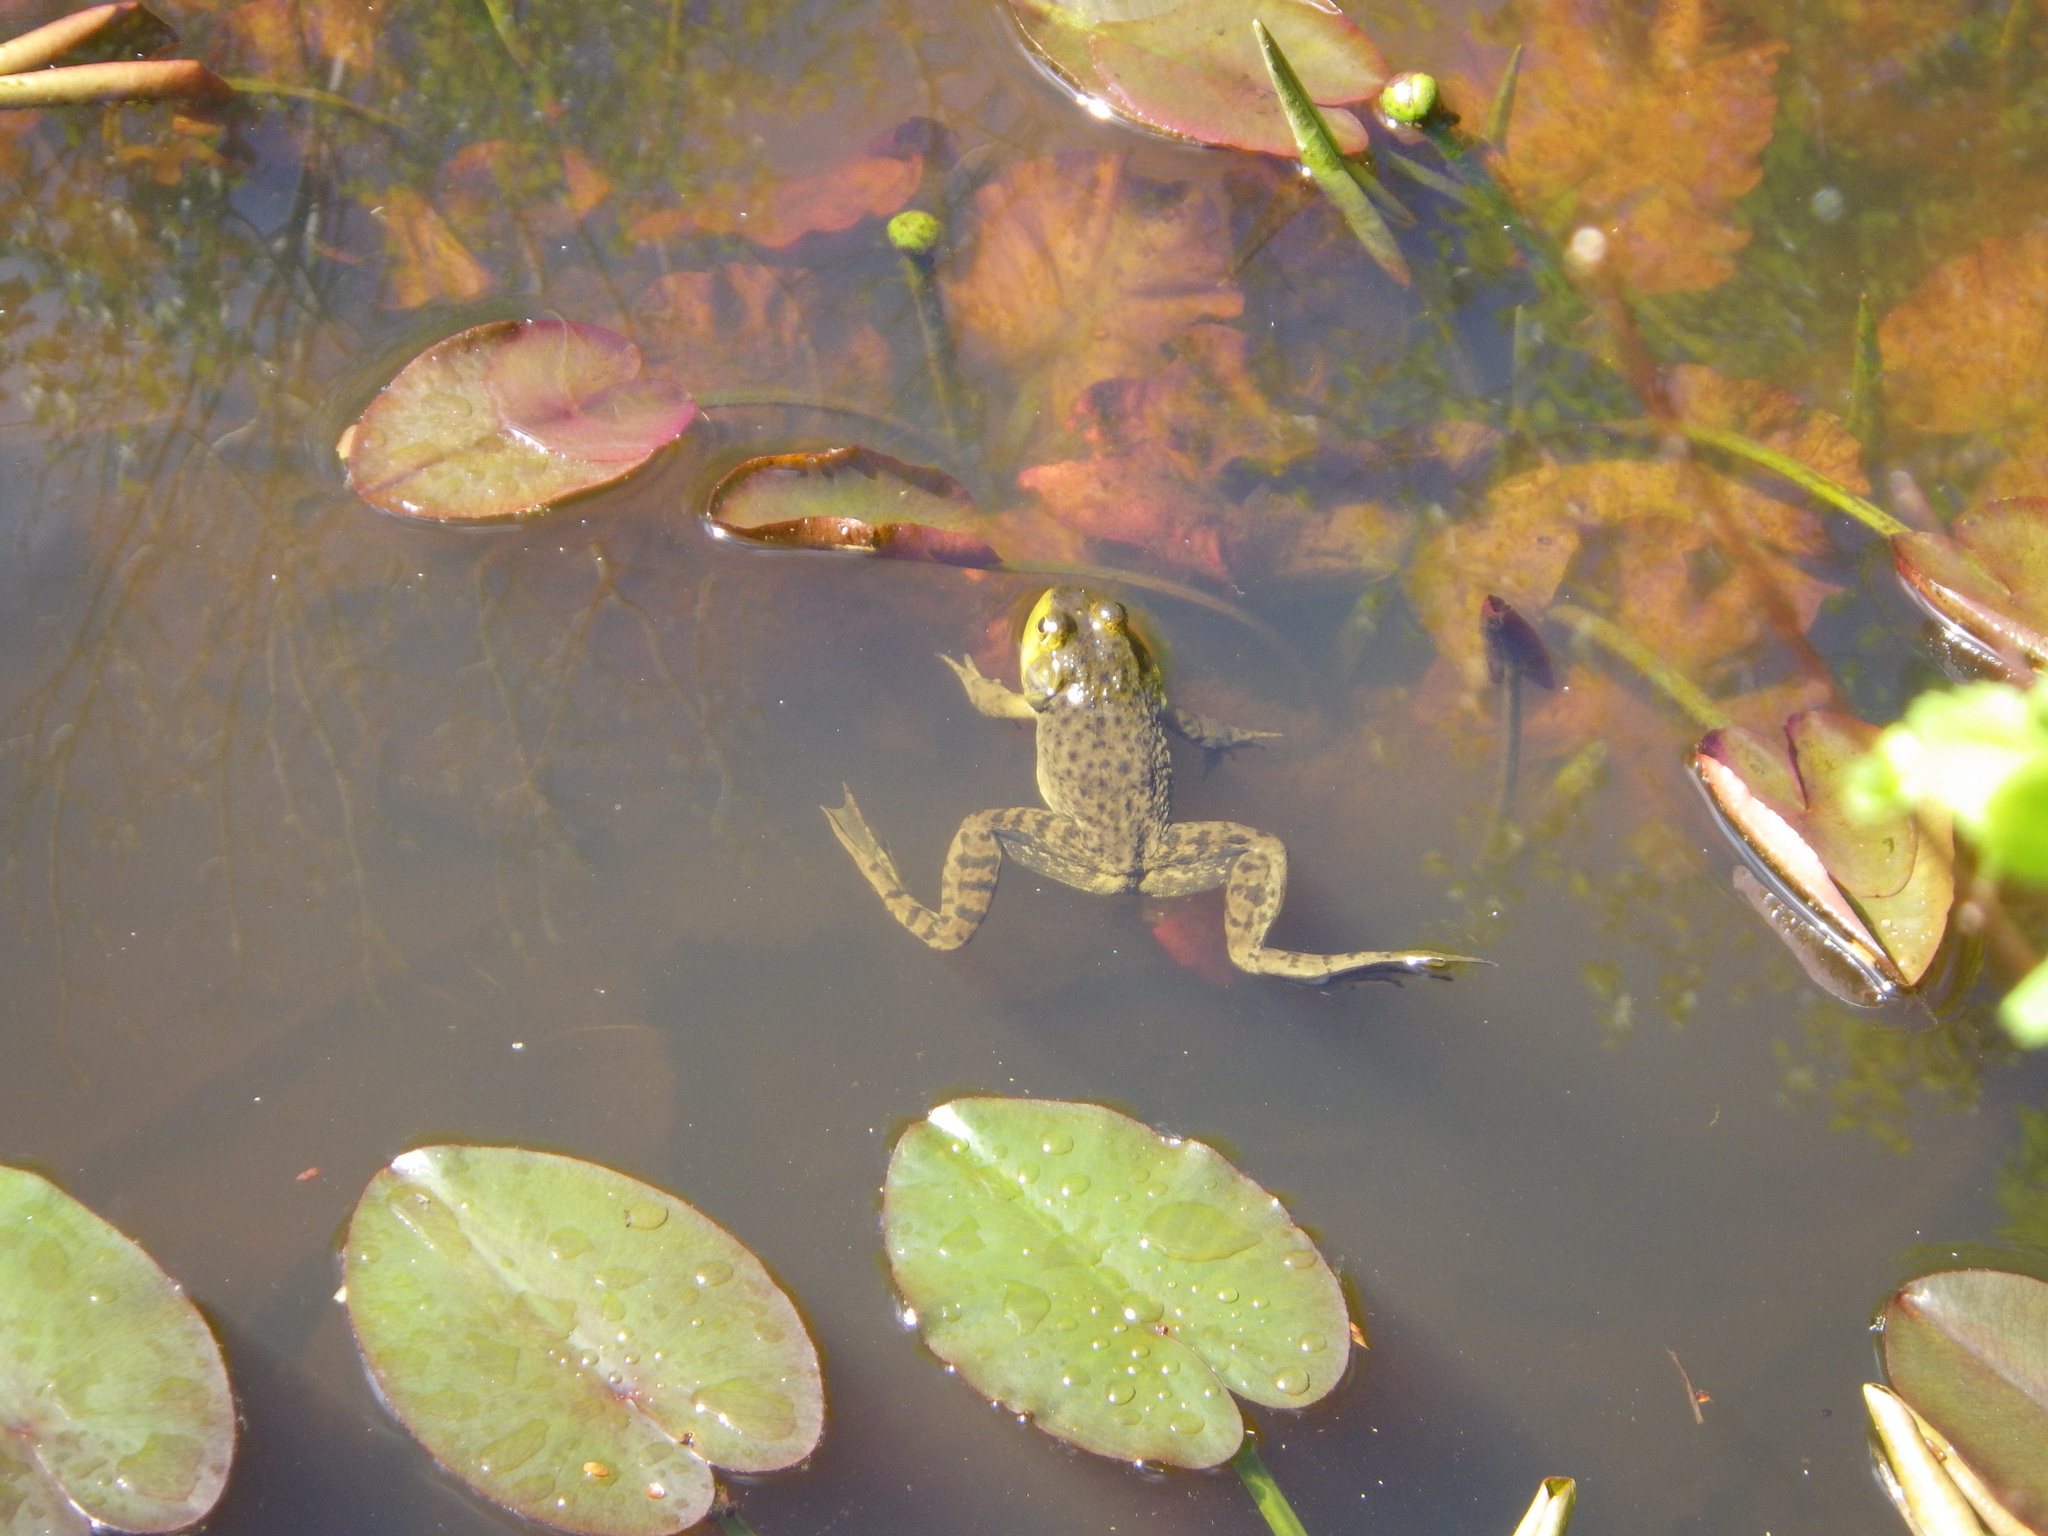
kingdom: Animalia
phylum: Chordata
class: Amphibia
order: Anura
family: Ranidae
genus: Lithobates
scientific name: Lithobates catesbeianus
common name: American bullfrog
